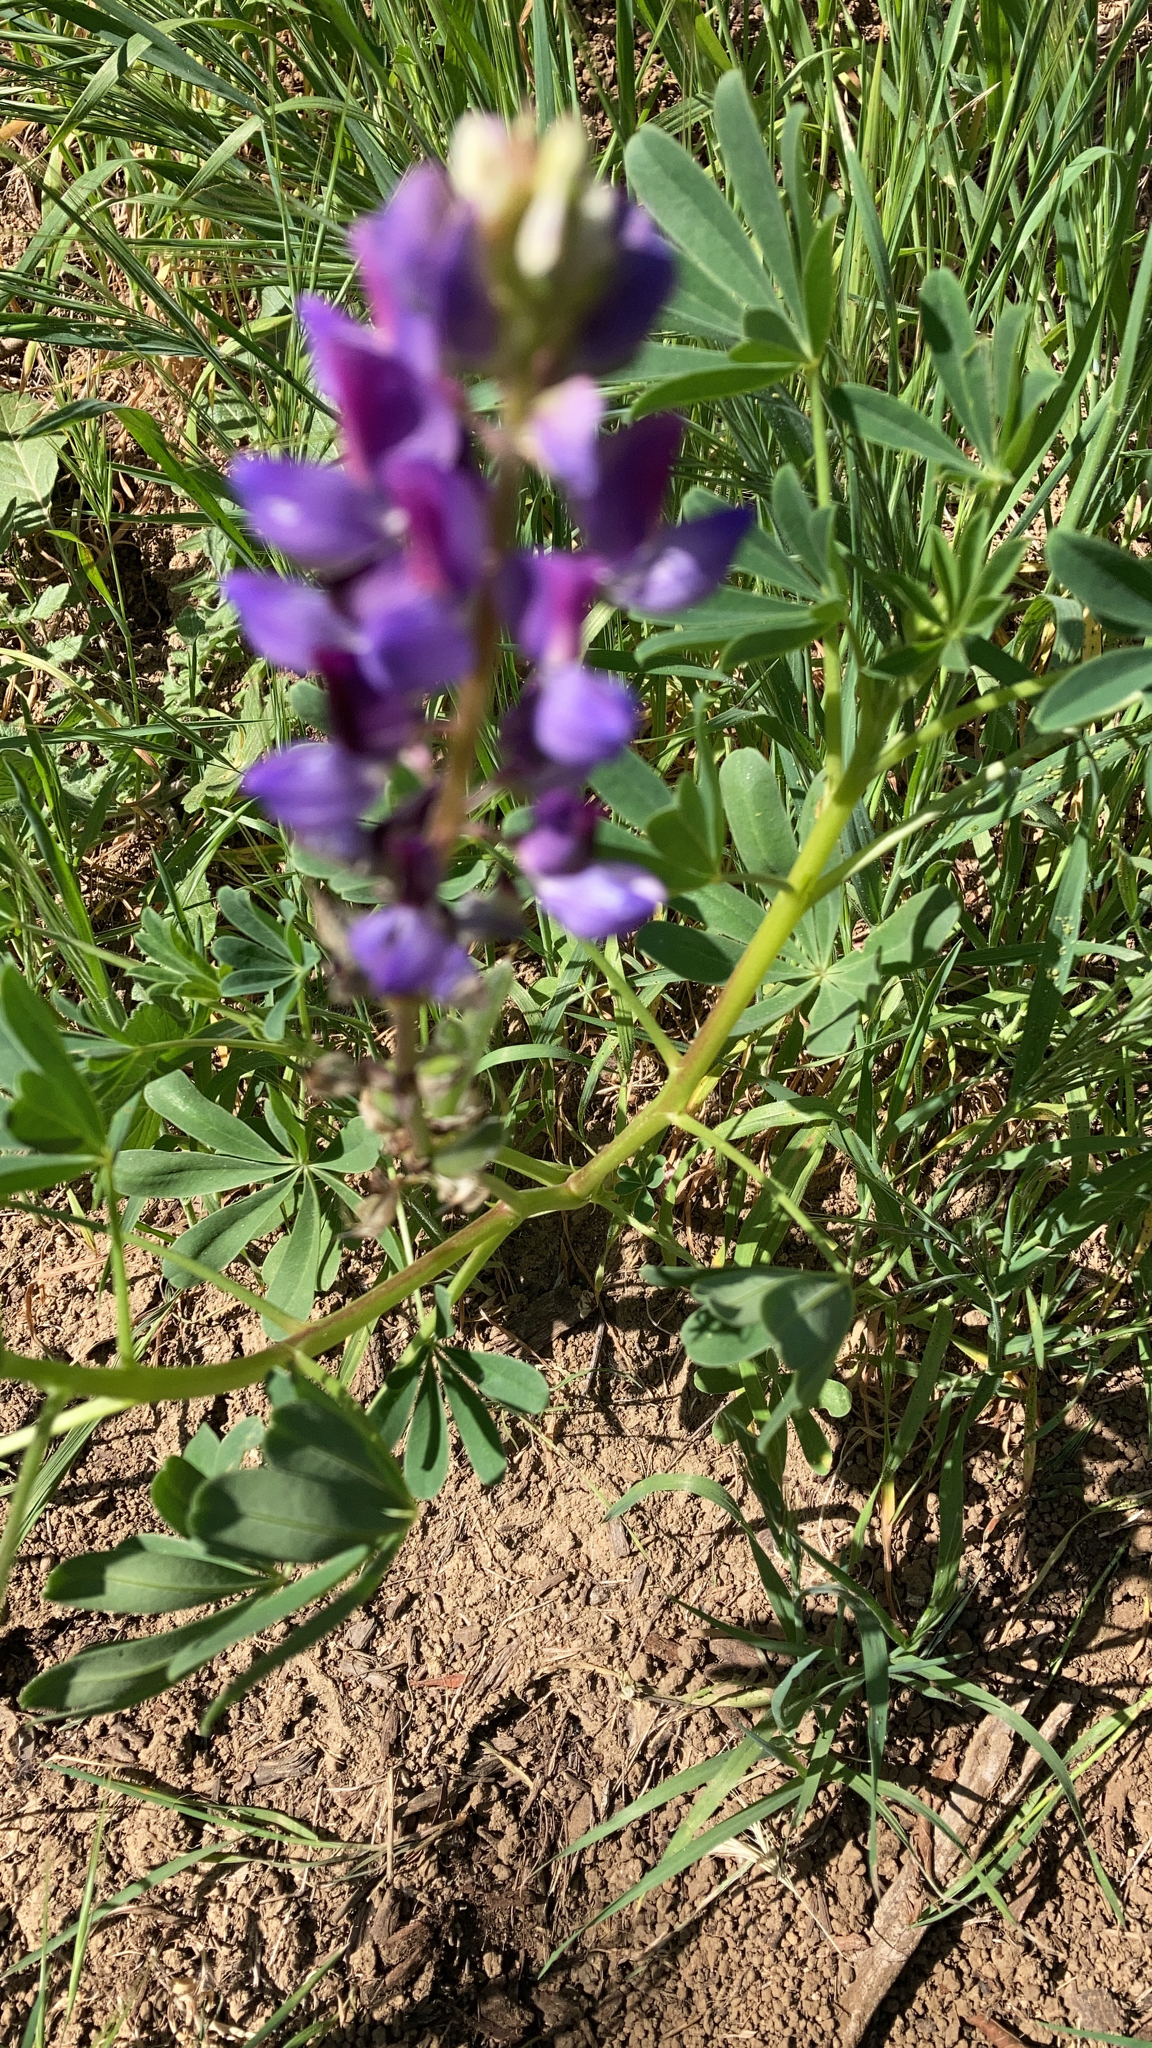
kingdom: Plantae
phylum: Tracheophyta
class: Magnoliopsida
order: Fabales
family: Fabaceae
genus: Lupinus
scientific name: Lupinus succulentus
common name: Arroyo lupine
